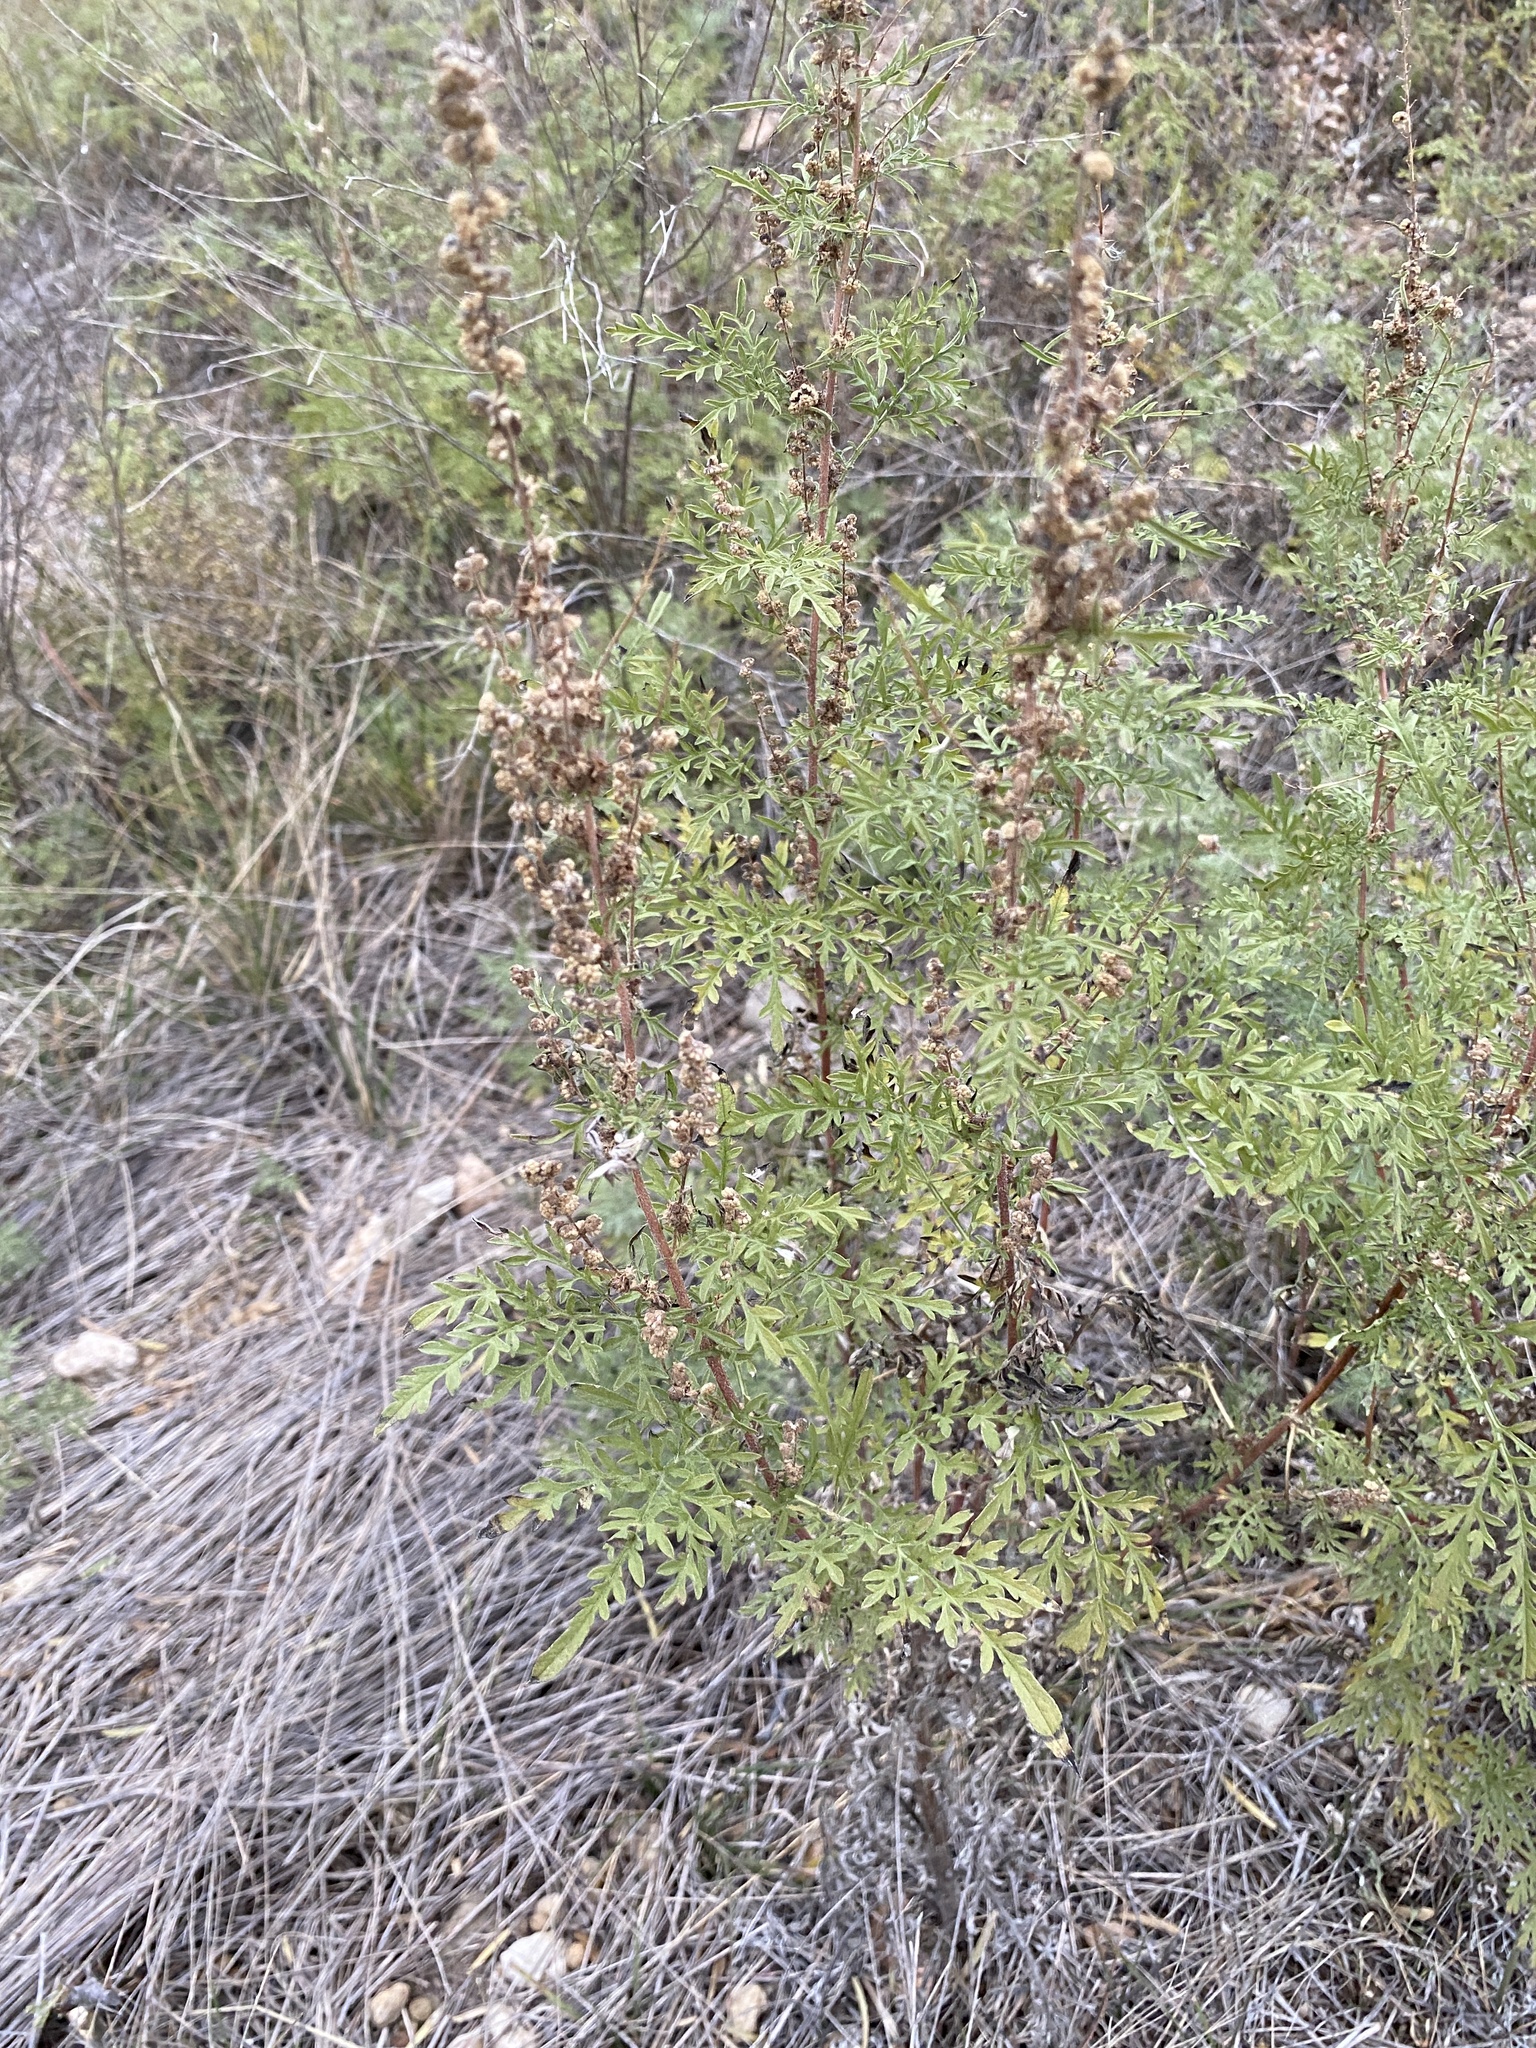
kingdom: Plantae
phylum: Tracheophyta
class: Magnoliopsida
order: Asterales
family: Asteraceae
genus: Ambrosia
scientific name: Ambrosia psilostachya
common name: Perennial ragweed
